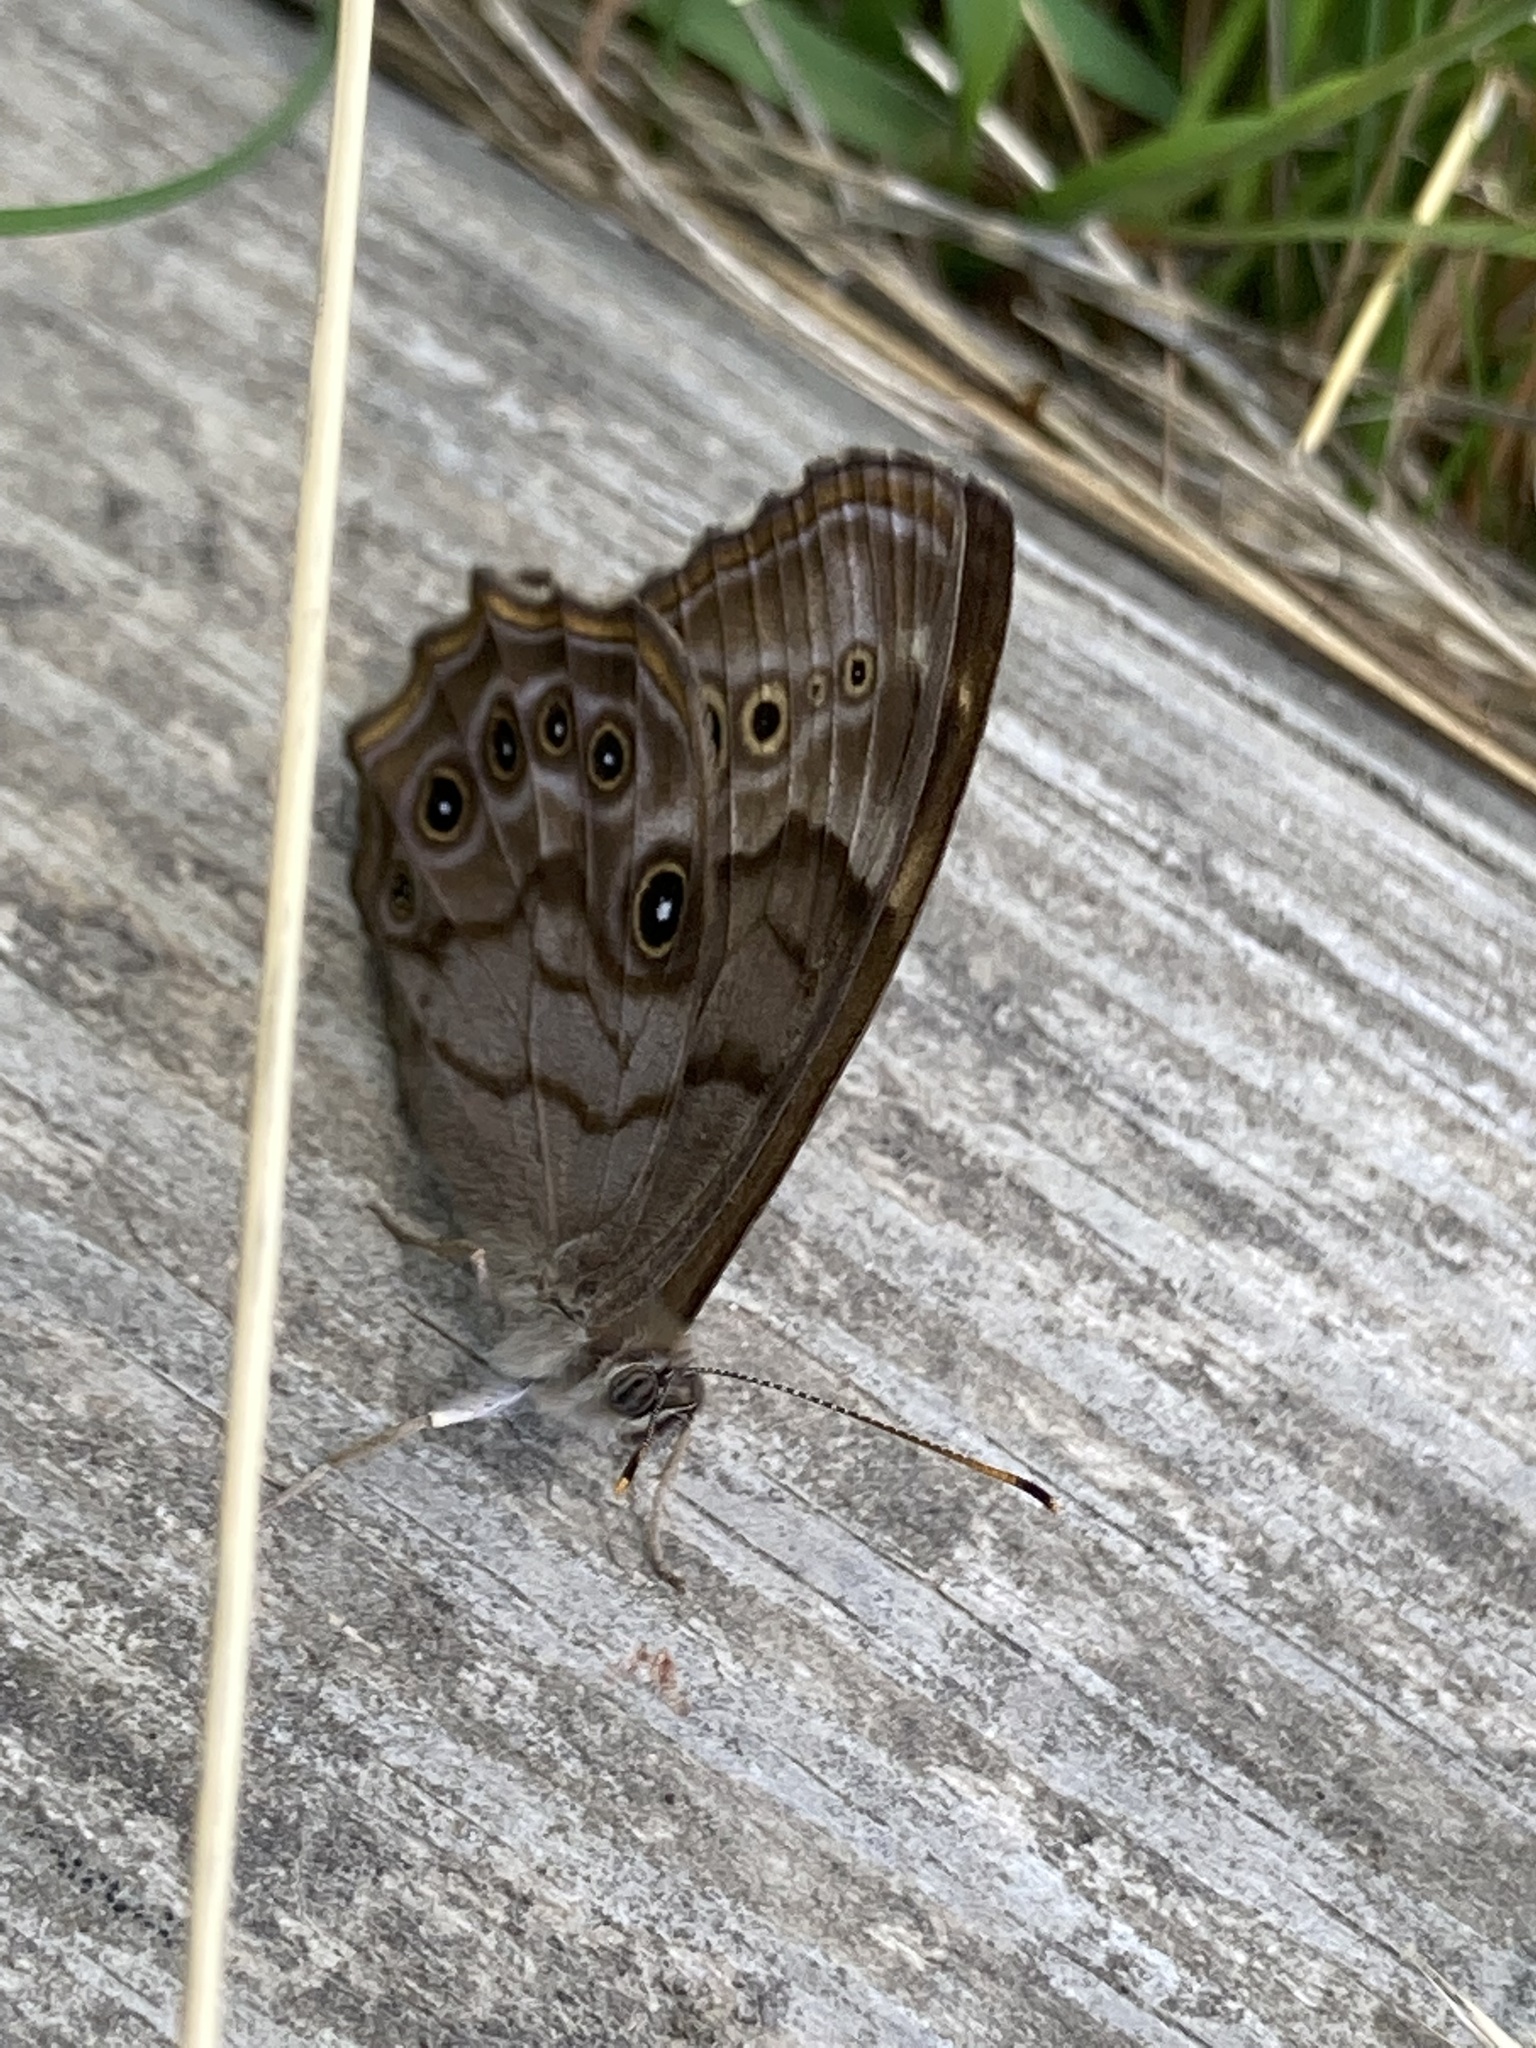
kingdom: Animalia
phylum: Arthropoda
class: Insecta
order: Lepidoptera
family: Nymphalidae
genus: Lethe
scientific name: Lethe anthedon
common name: Northern pearly-eye
